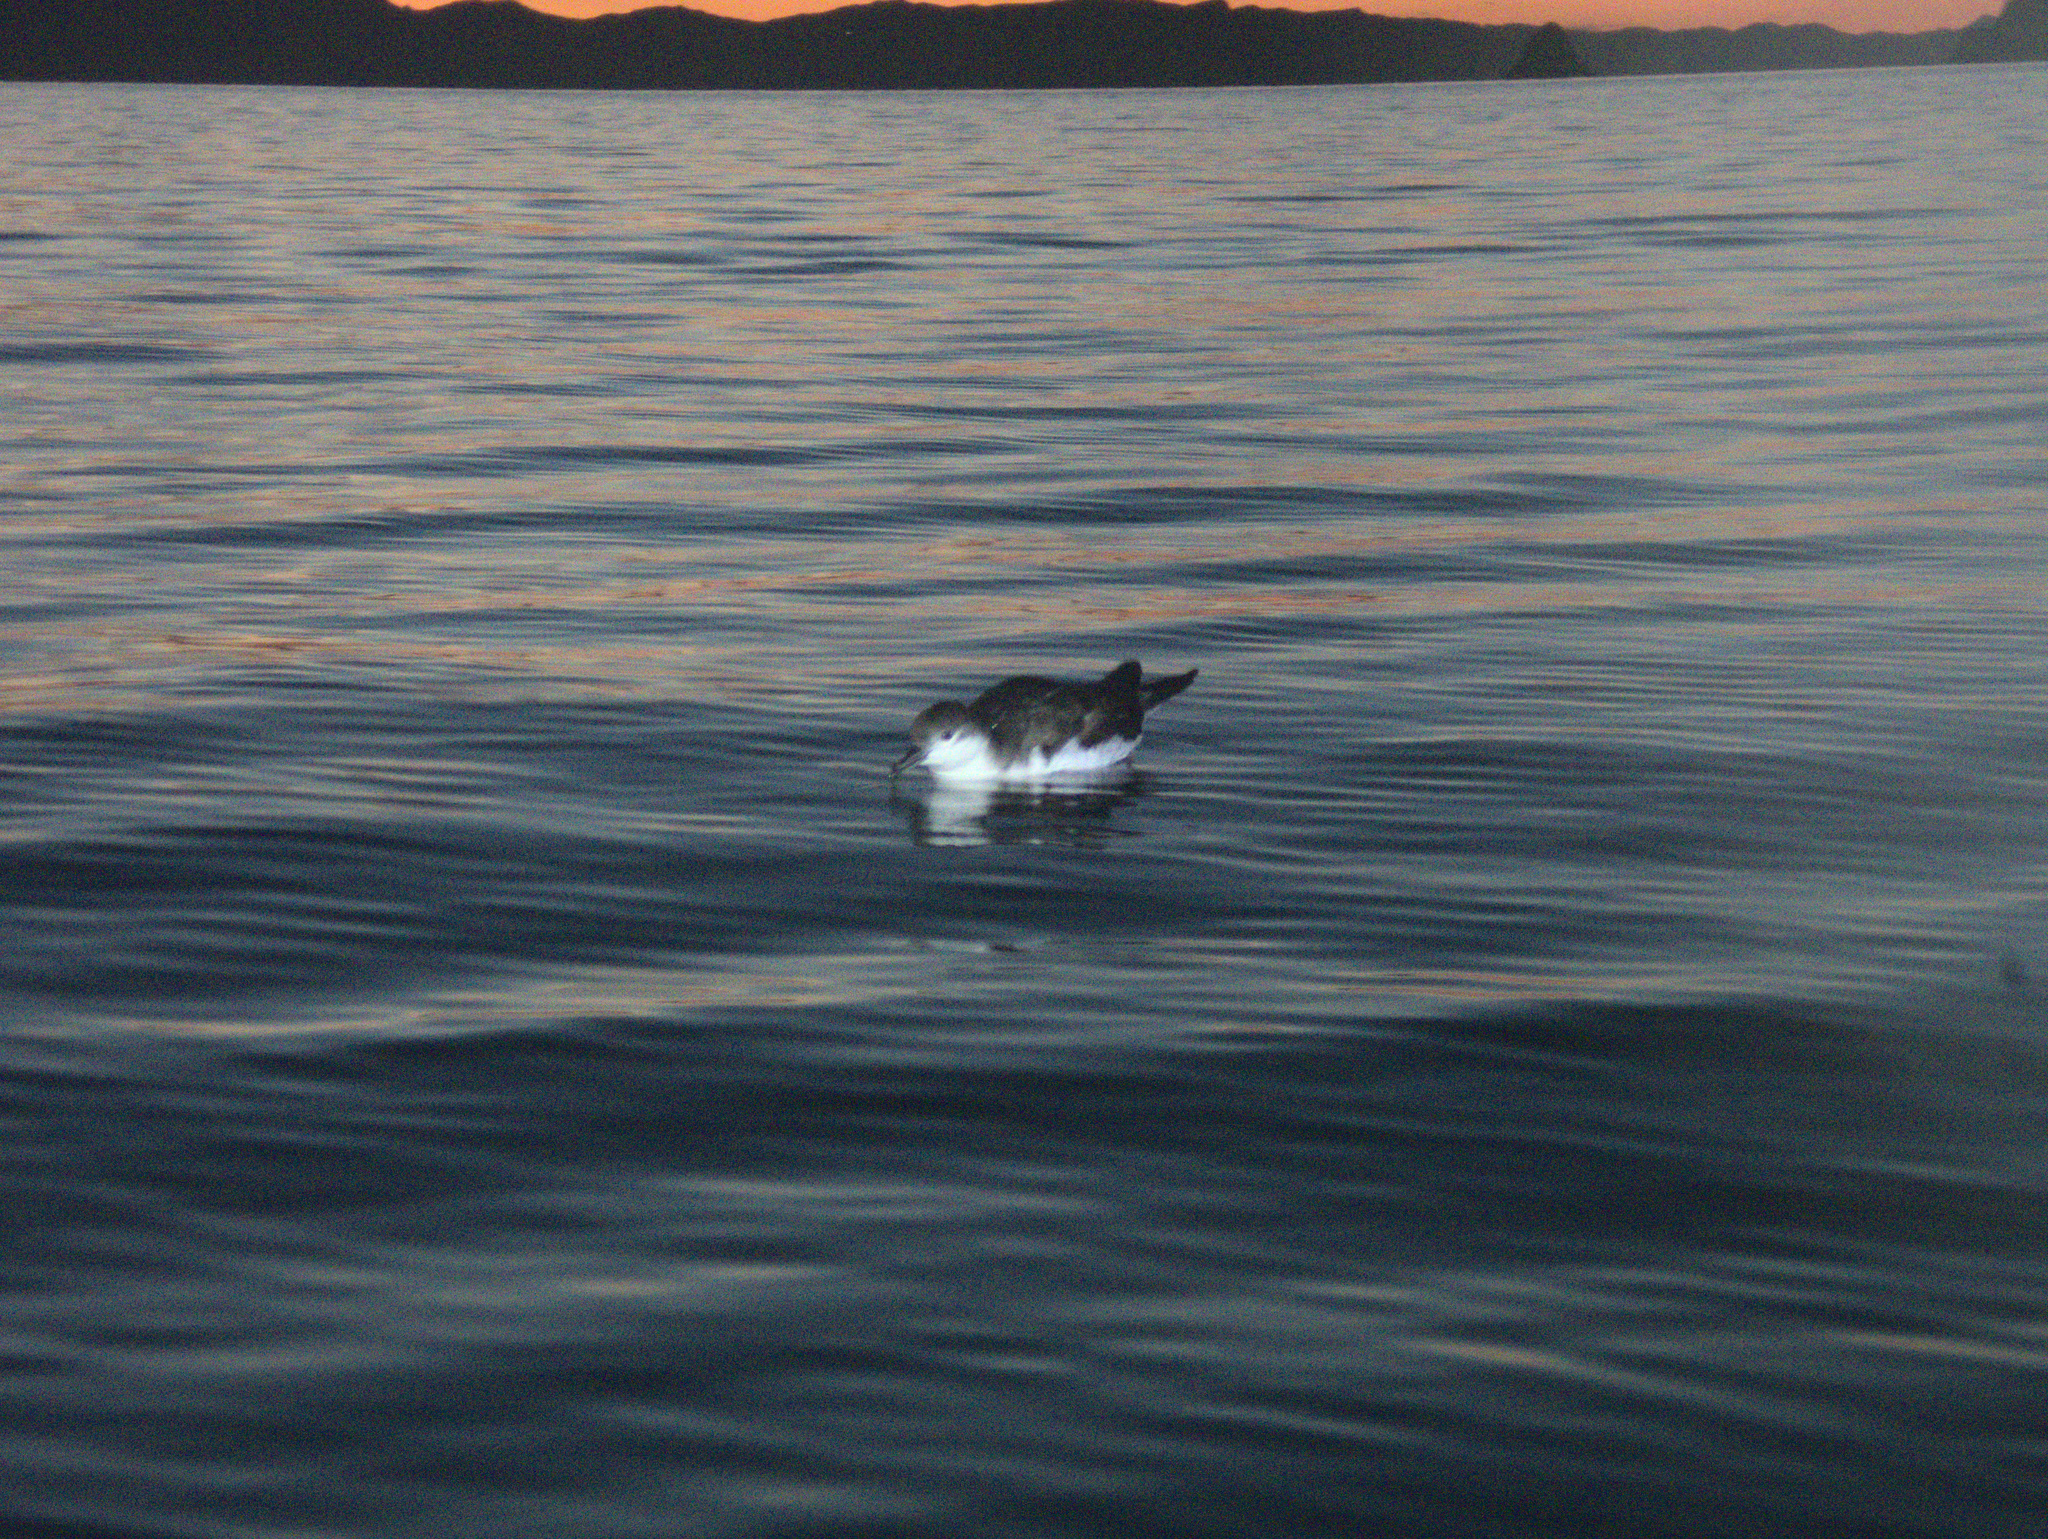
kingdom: Animalia
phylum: Chordata
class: Aves
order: Procellariiformes
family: Procellariidae
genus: Puffinus
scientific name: Puffinus bulleri
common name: Buller's shearwater
